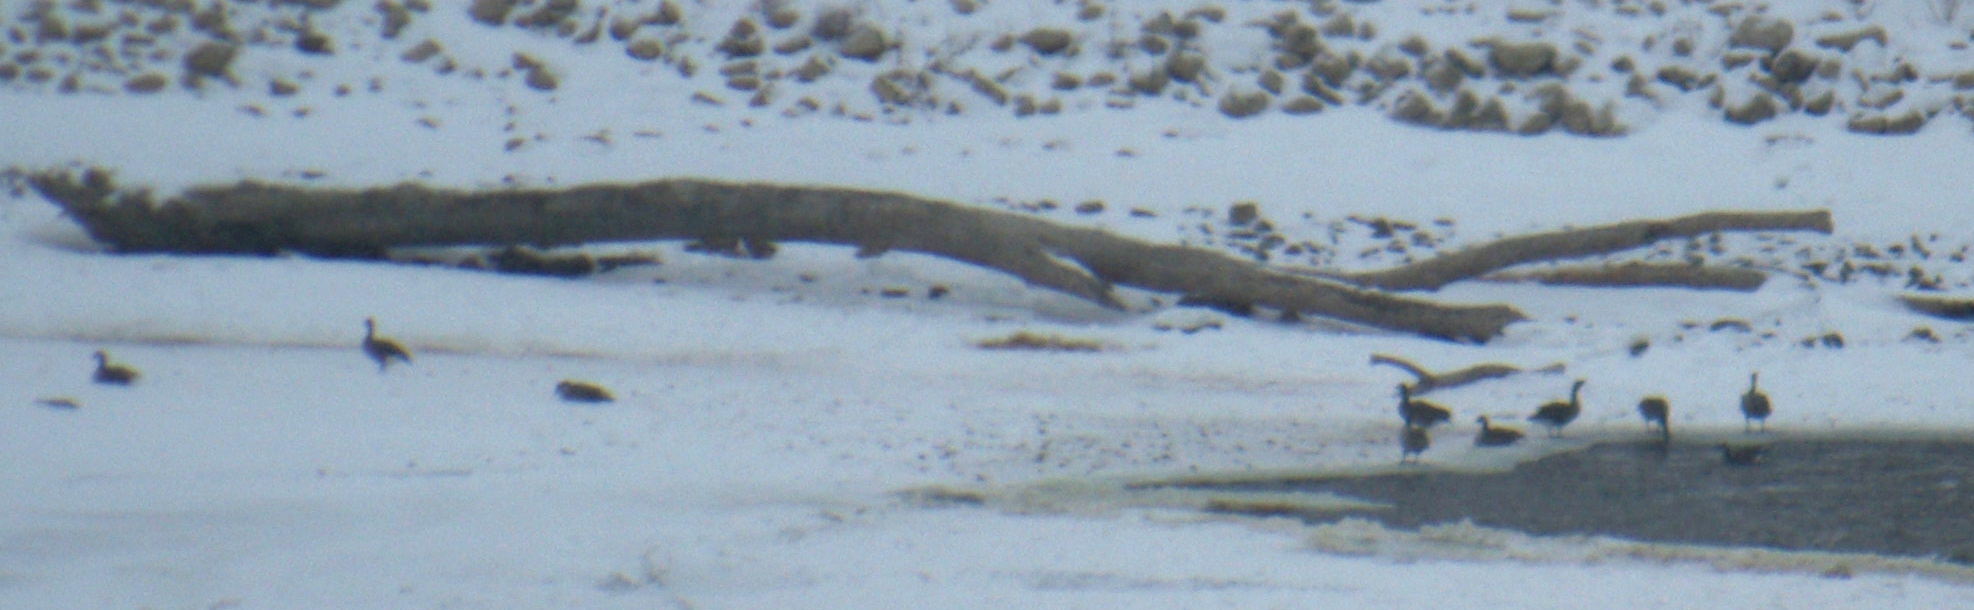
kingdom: Animalia
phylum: Chordata
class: Aves
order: Anseriformes
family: Anatidae
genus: Branta
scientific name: Branta canadensis
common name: Canada goose
